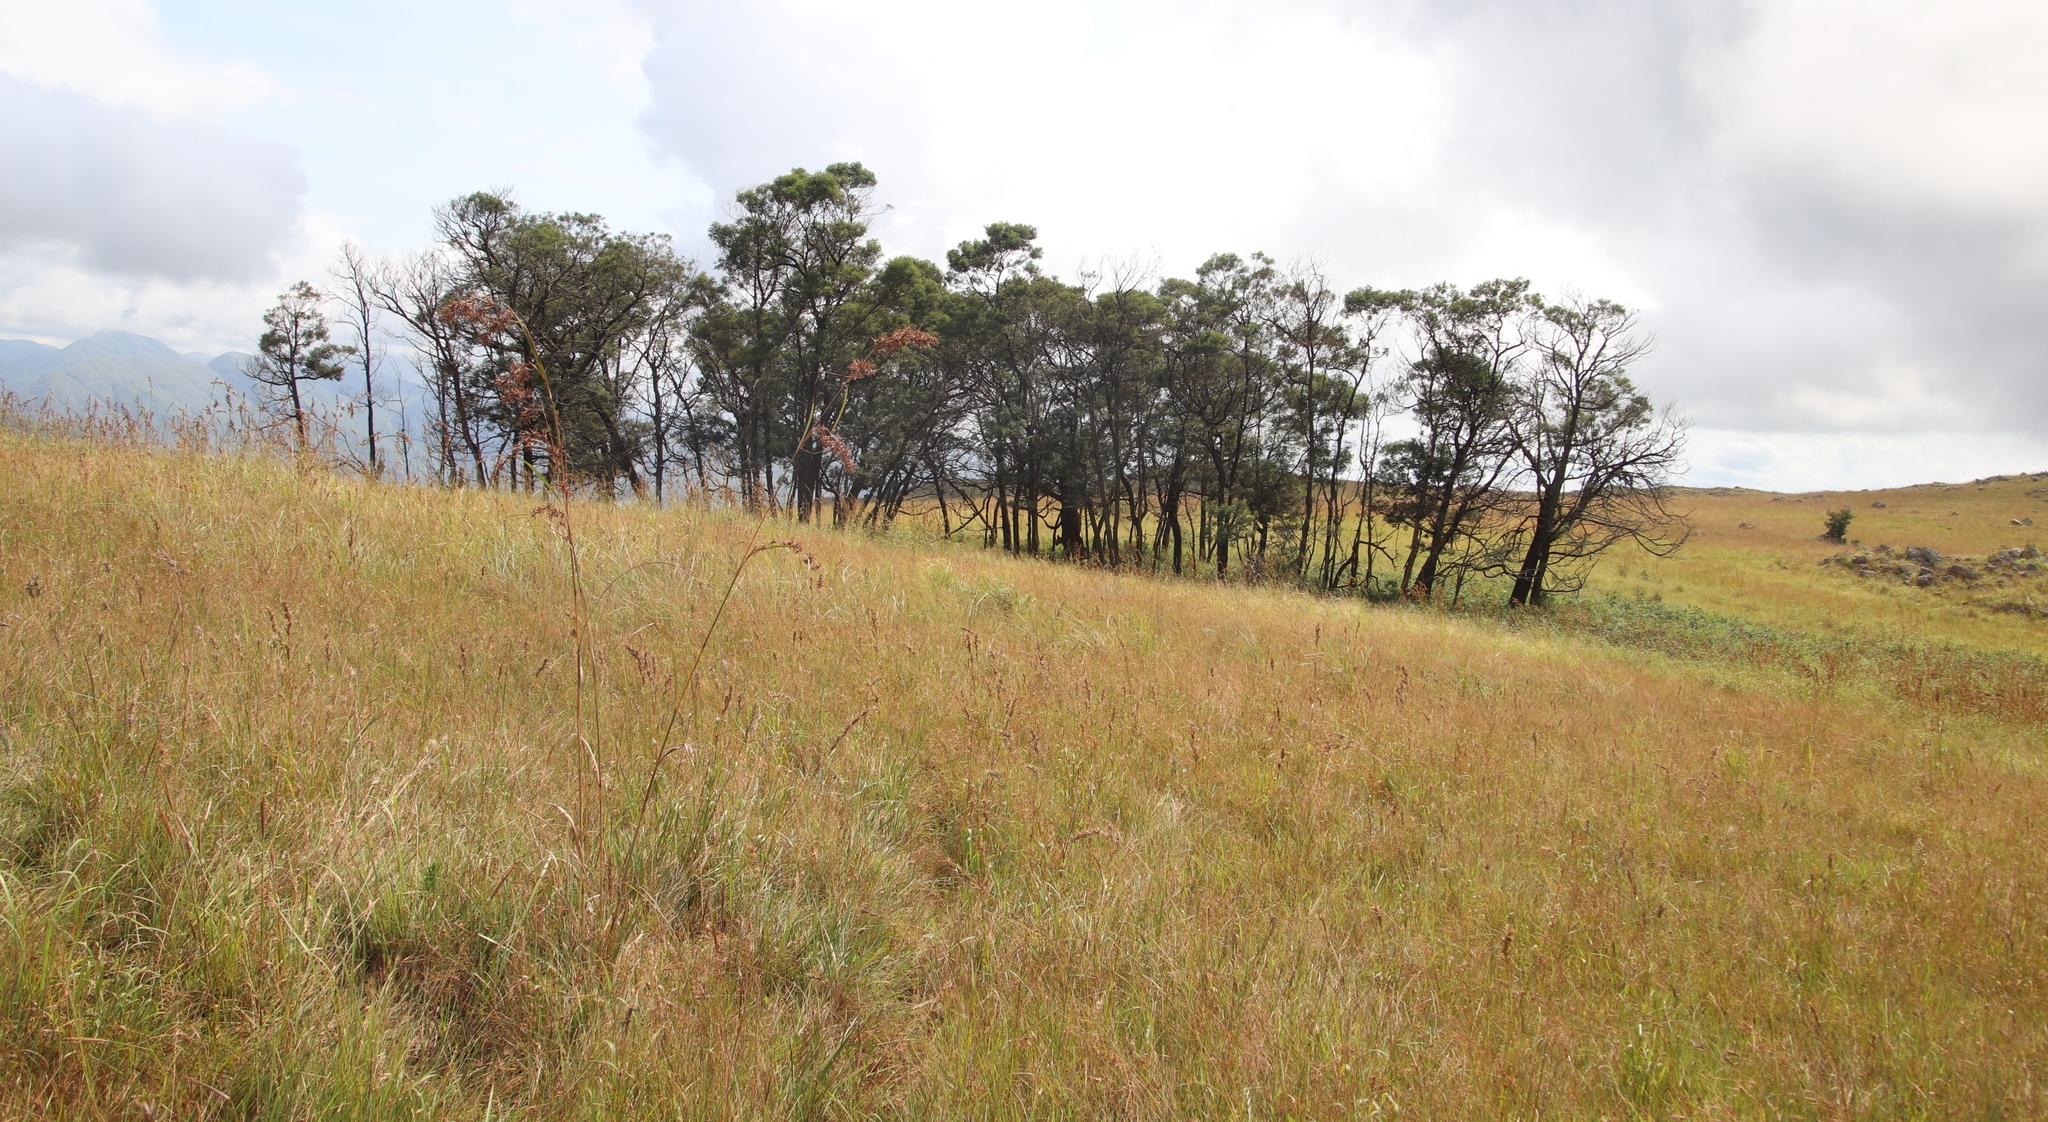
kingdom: Plantae
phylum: Tracheophyta
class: Magnoliopsida
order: Fabales
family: Fabaceae
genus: Acacia
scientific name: Acacia dealbata
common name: Silver wattle
